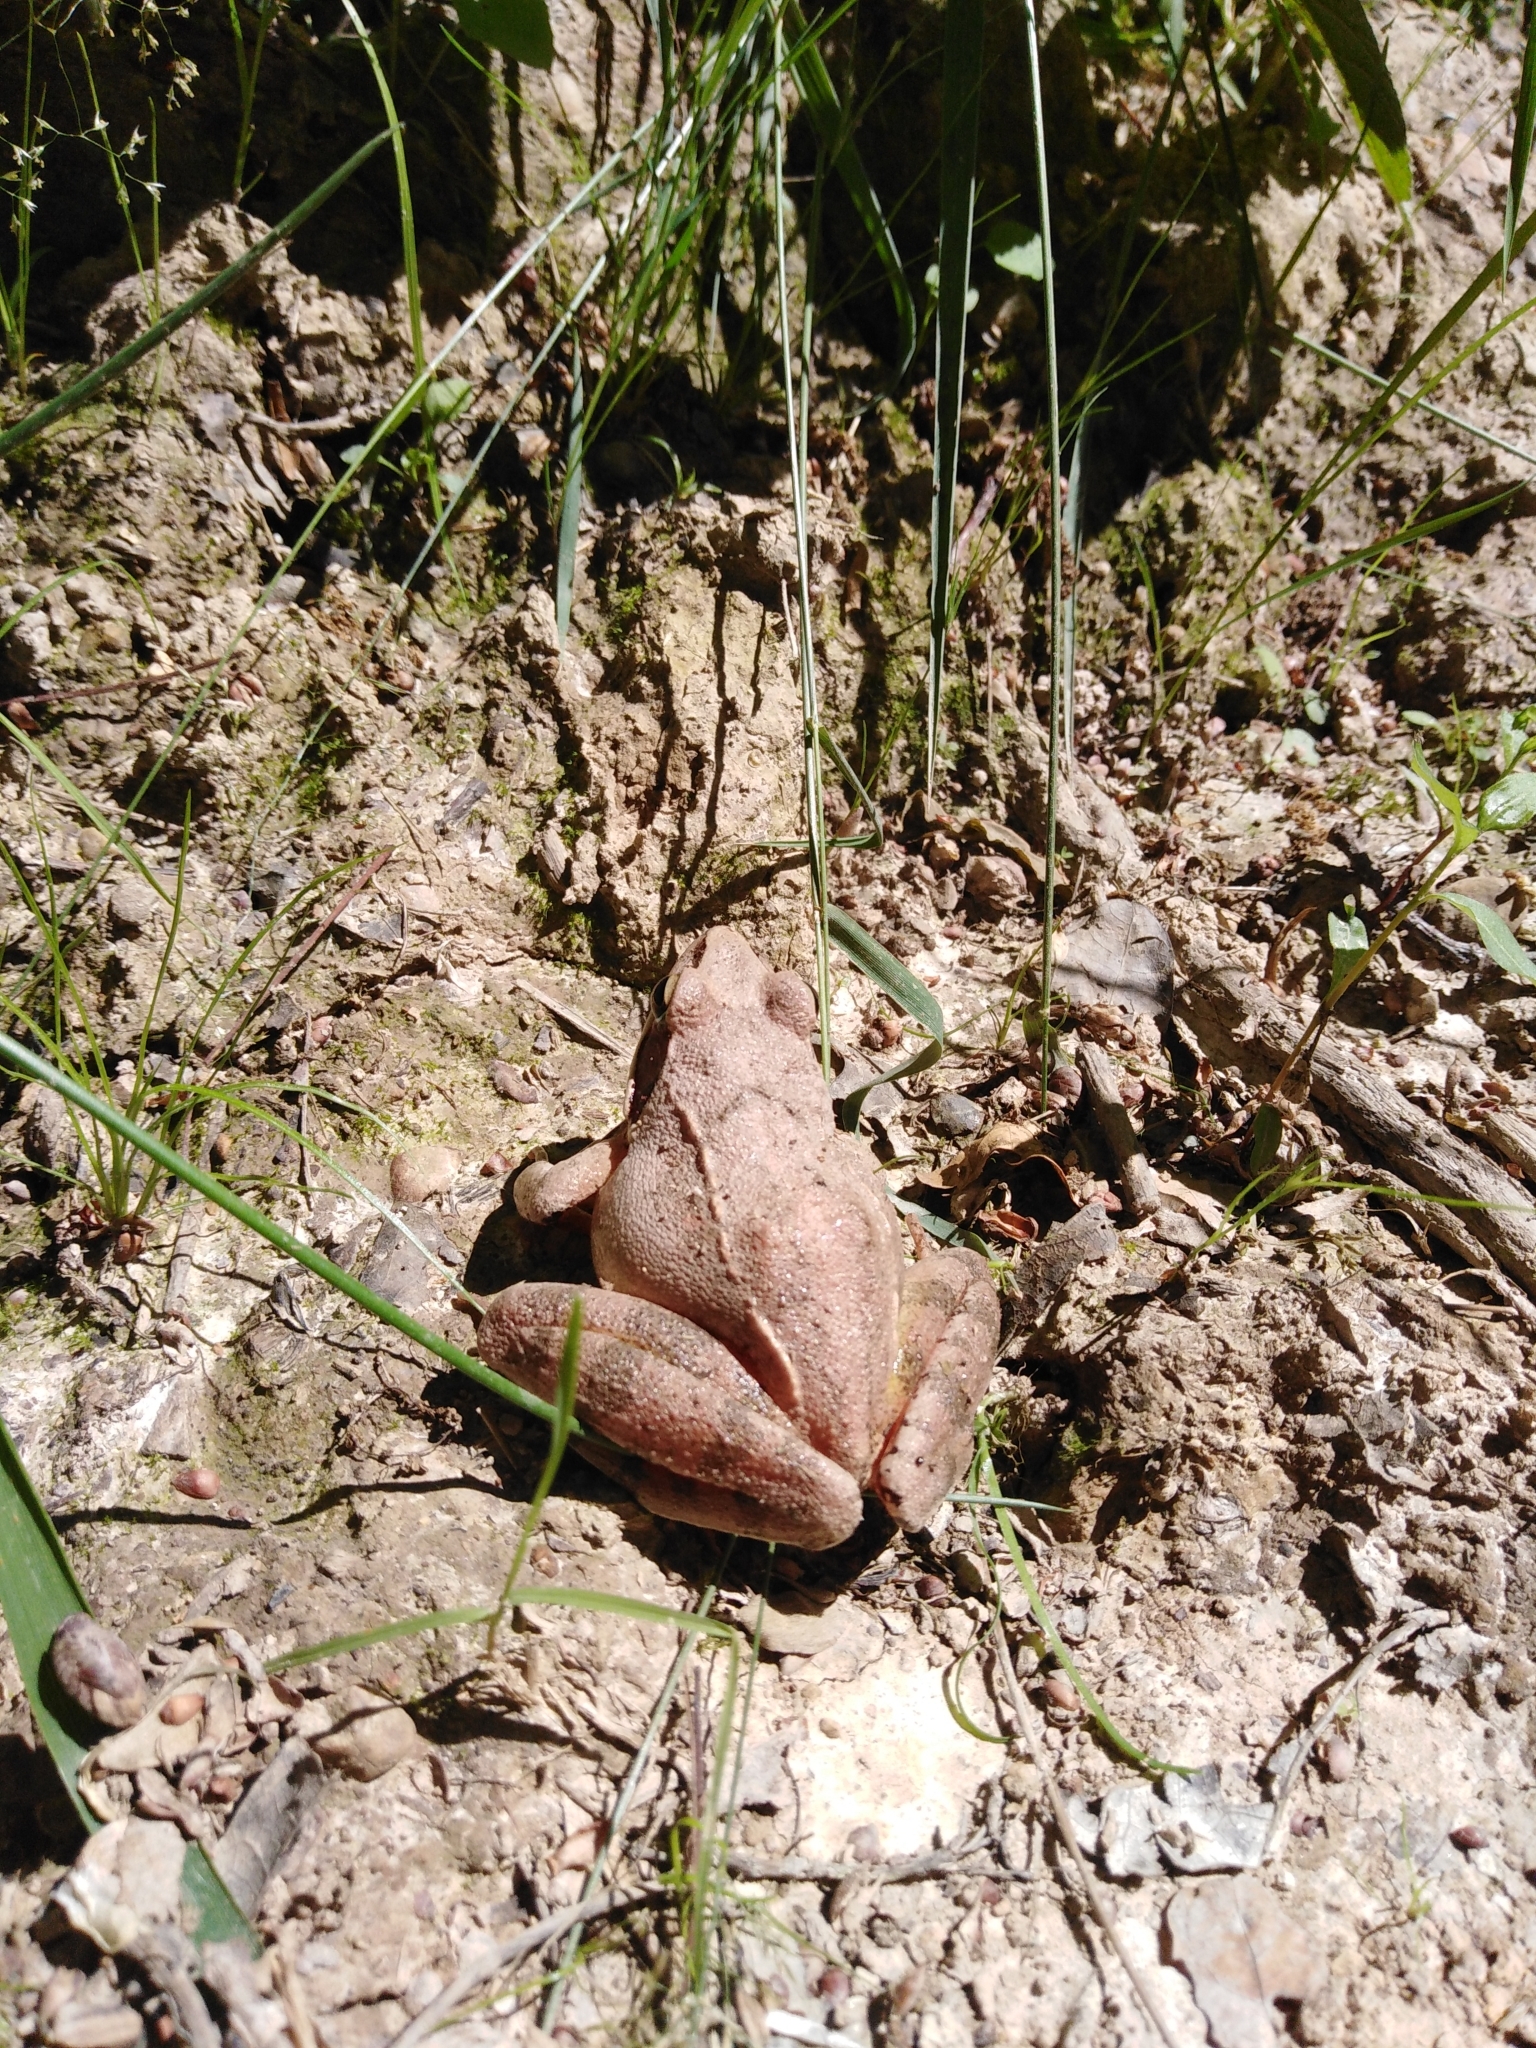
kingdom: Animalia
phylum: Chordata
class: Amphibia
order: Anura
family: Ranidae
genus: Rana
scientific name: Rana dalmatina
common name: Agile frog
